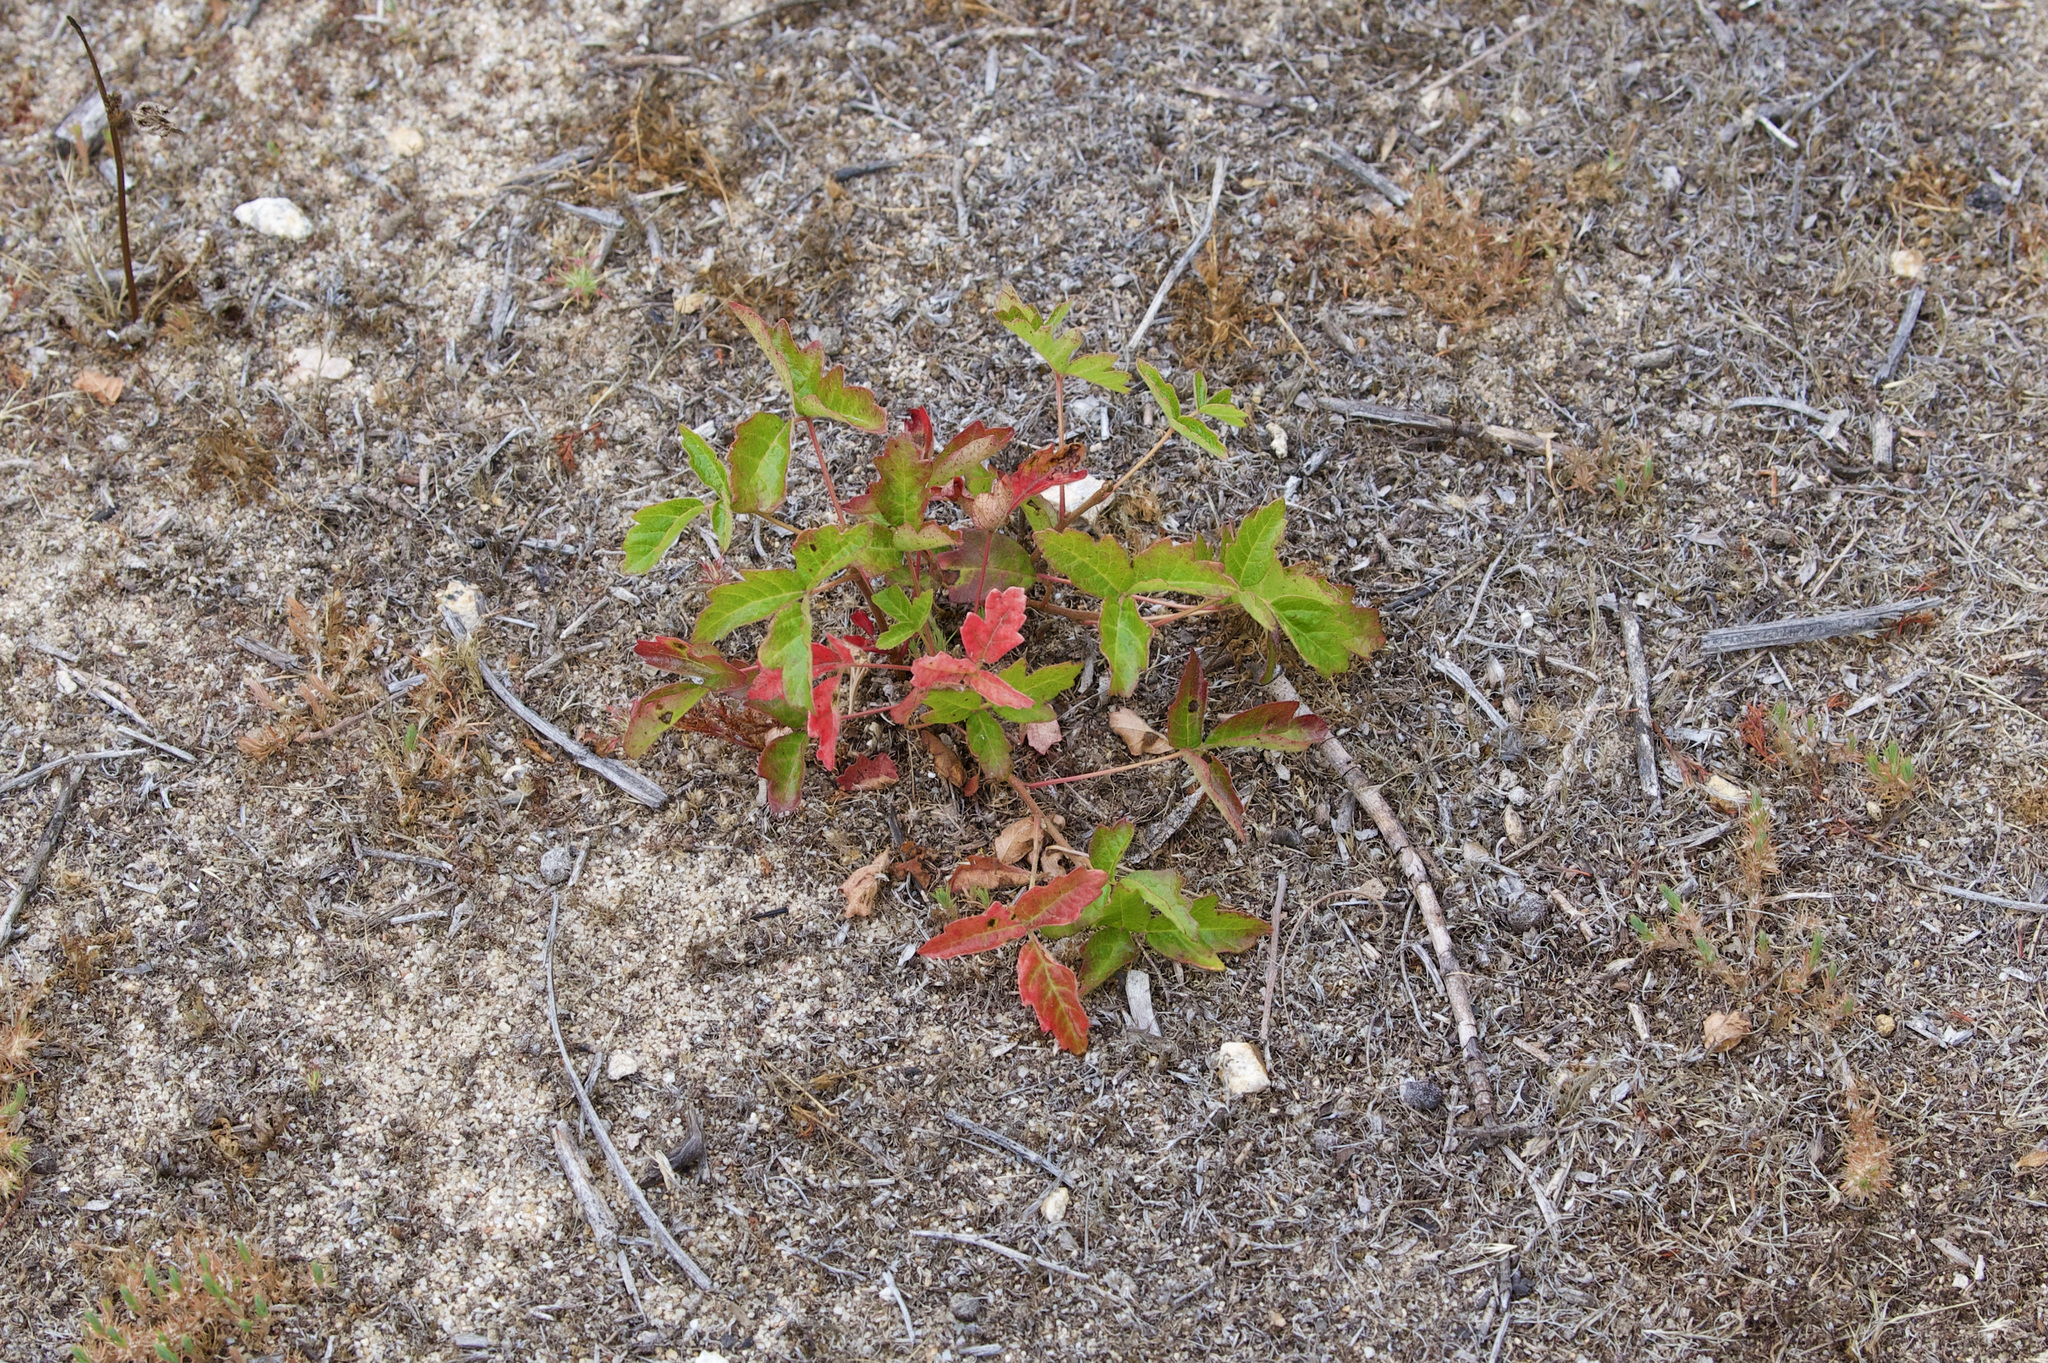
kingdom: Plantae
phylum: Tracheophyta
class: Magnoliopsida
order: Sapindales
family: Anacardiaceae
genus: Toxicodendron
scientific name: Toxicodendron diversilobum
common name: Pacific poison-oak
